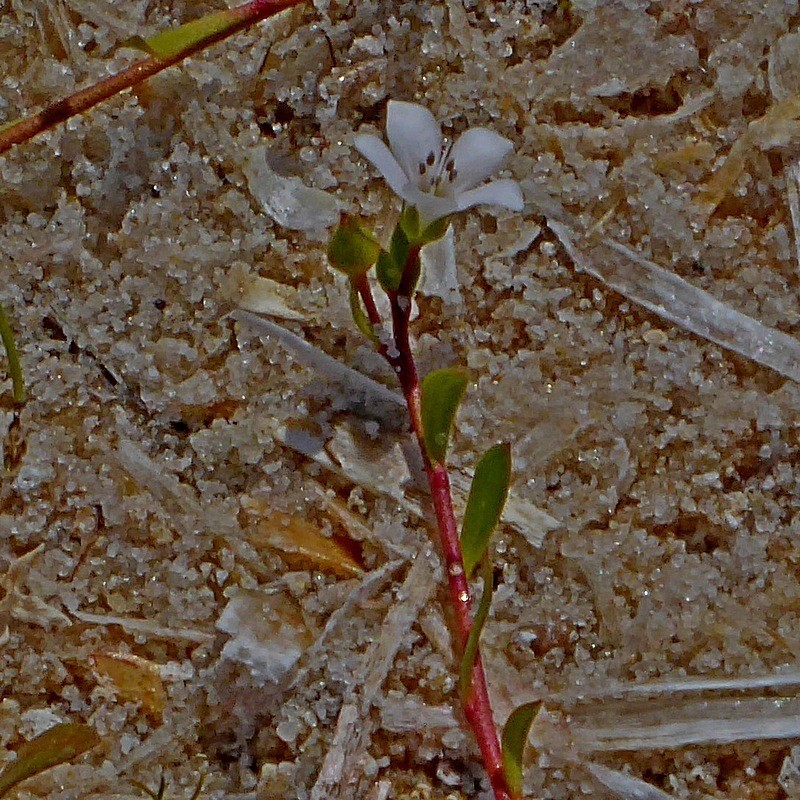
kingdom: Plantae
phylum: Tracheophyta
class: Magnoliopsida
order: Ericales
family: Primulaceae
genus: Samolus
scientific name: Samolus repens
